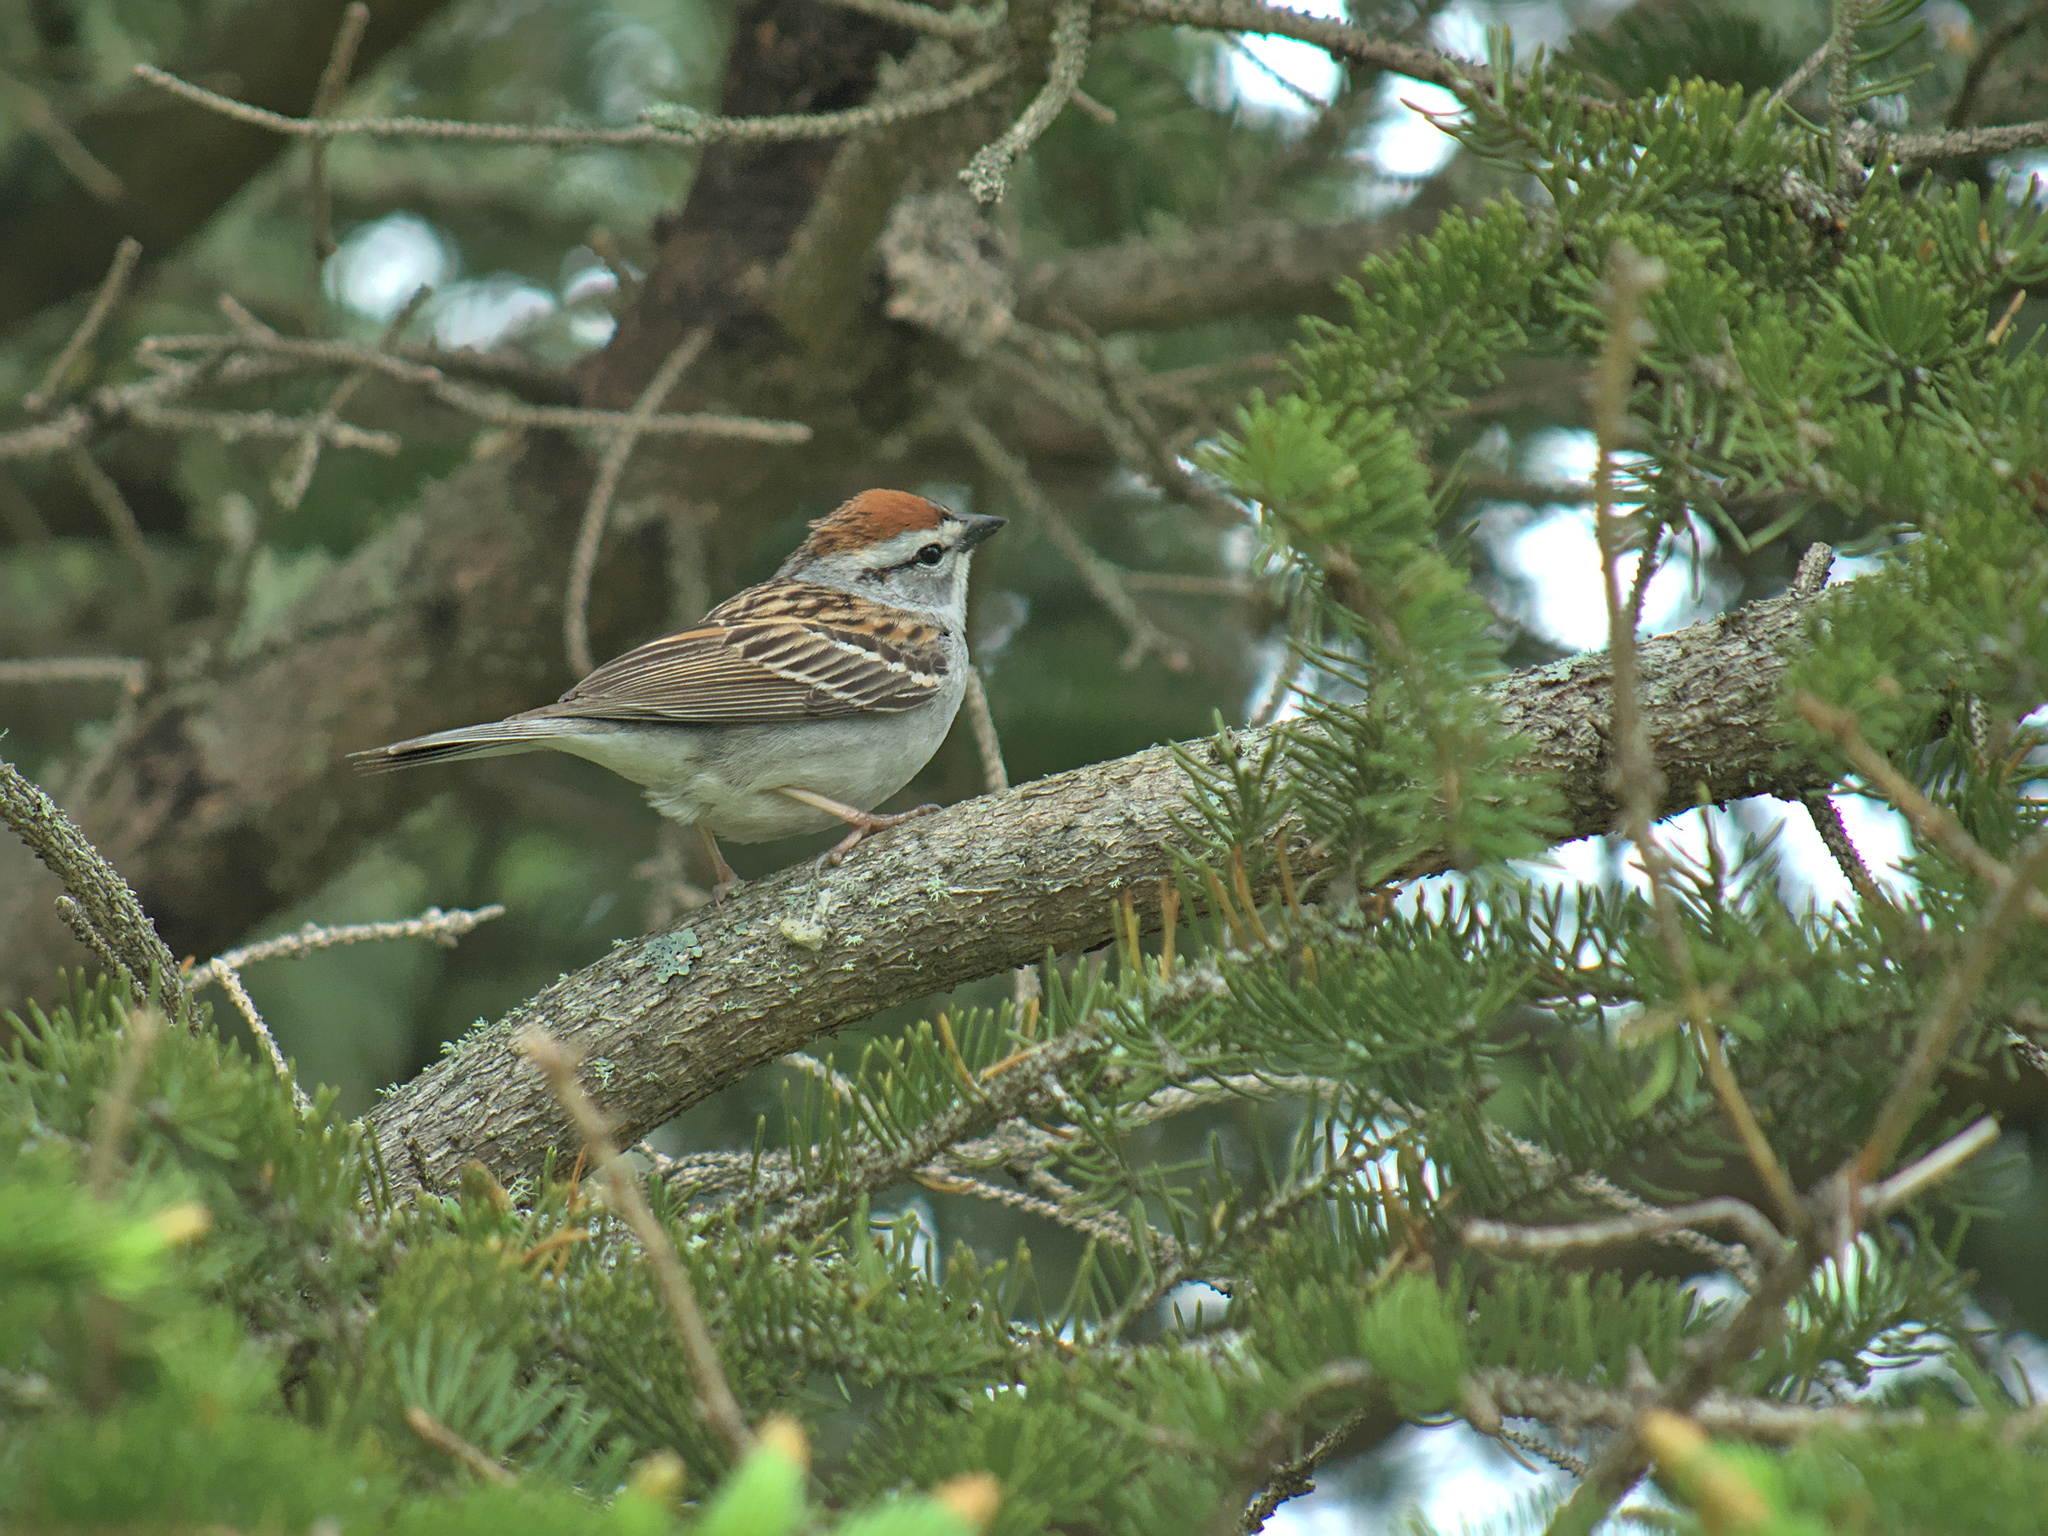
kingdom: Animalia
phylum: Chordata
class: Aves
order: Passeriformes
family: Passerellidae
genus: Spizella
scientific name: Spizella passerina
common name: Chipping sparrow
